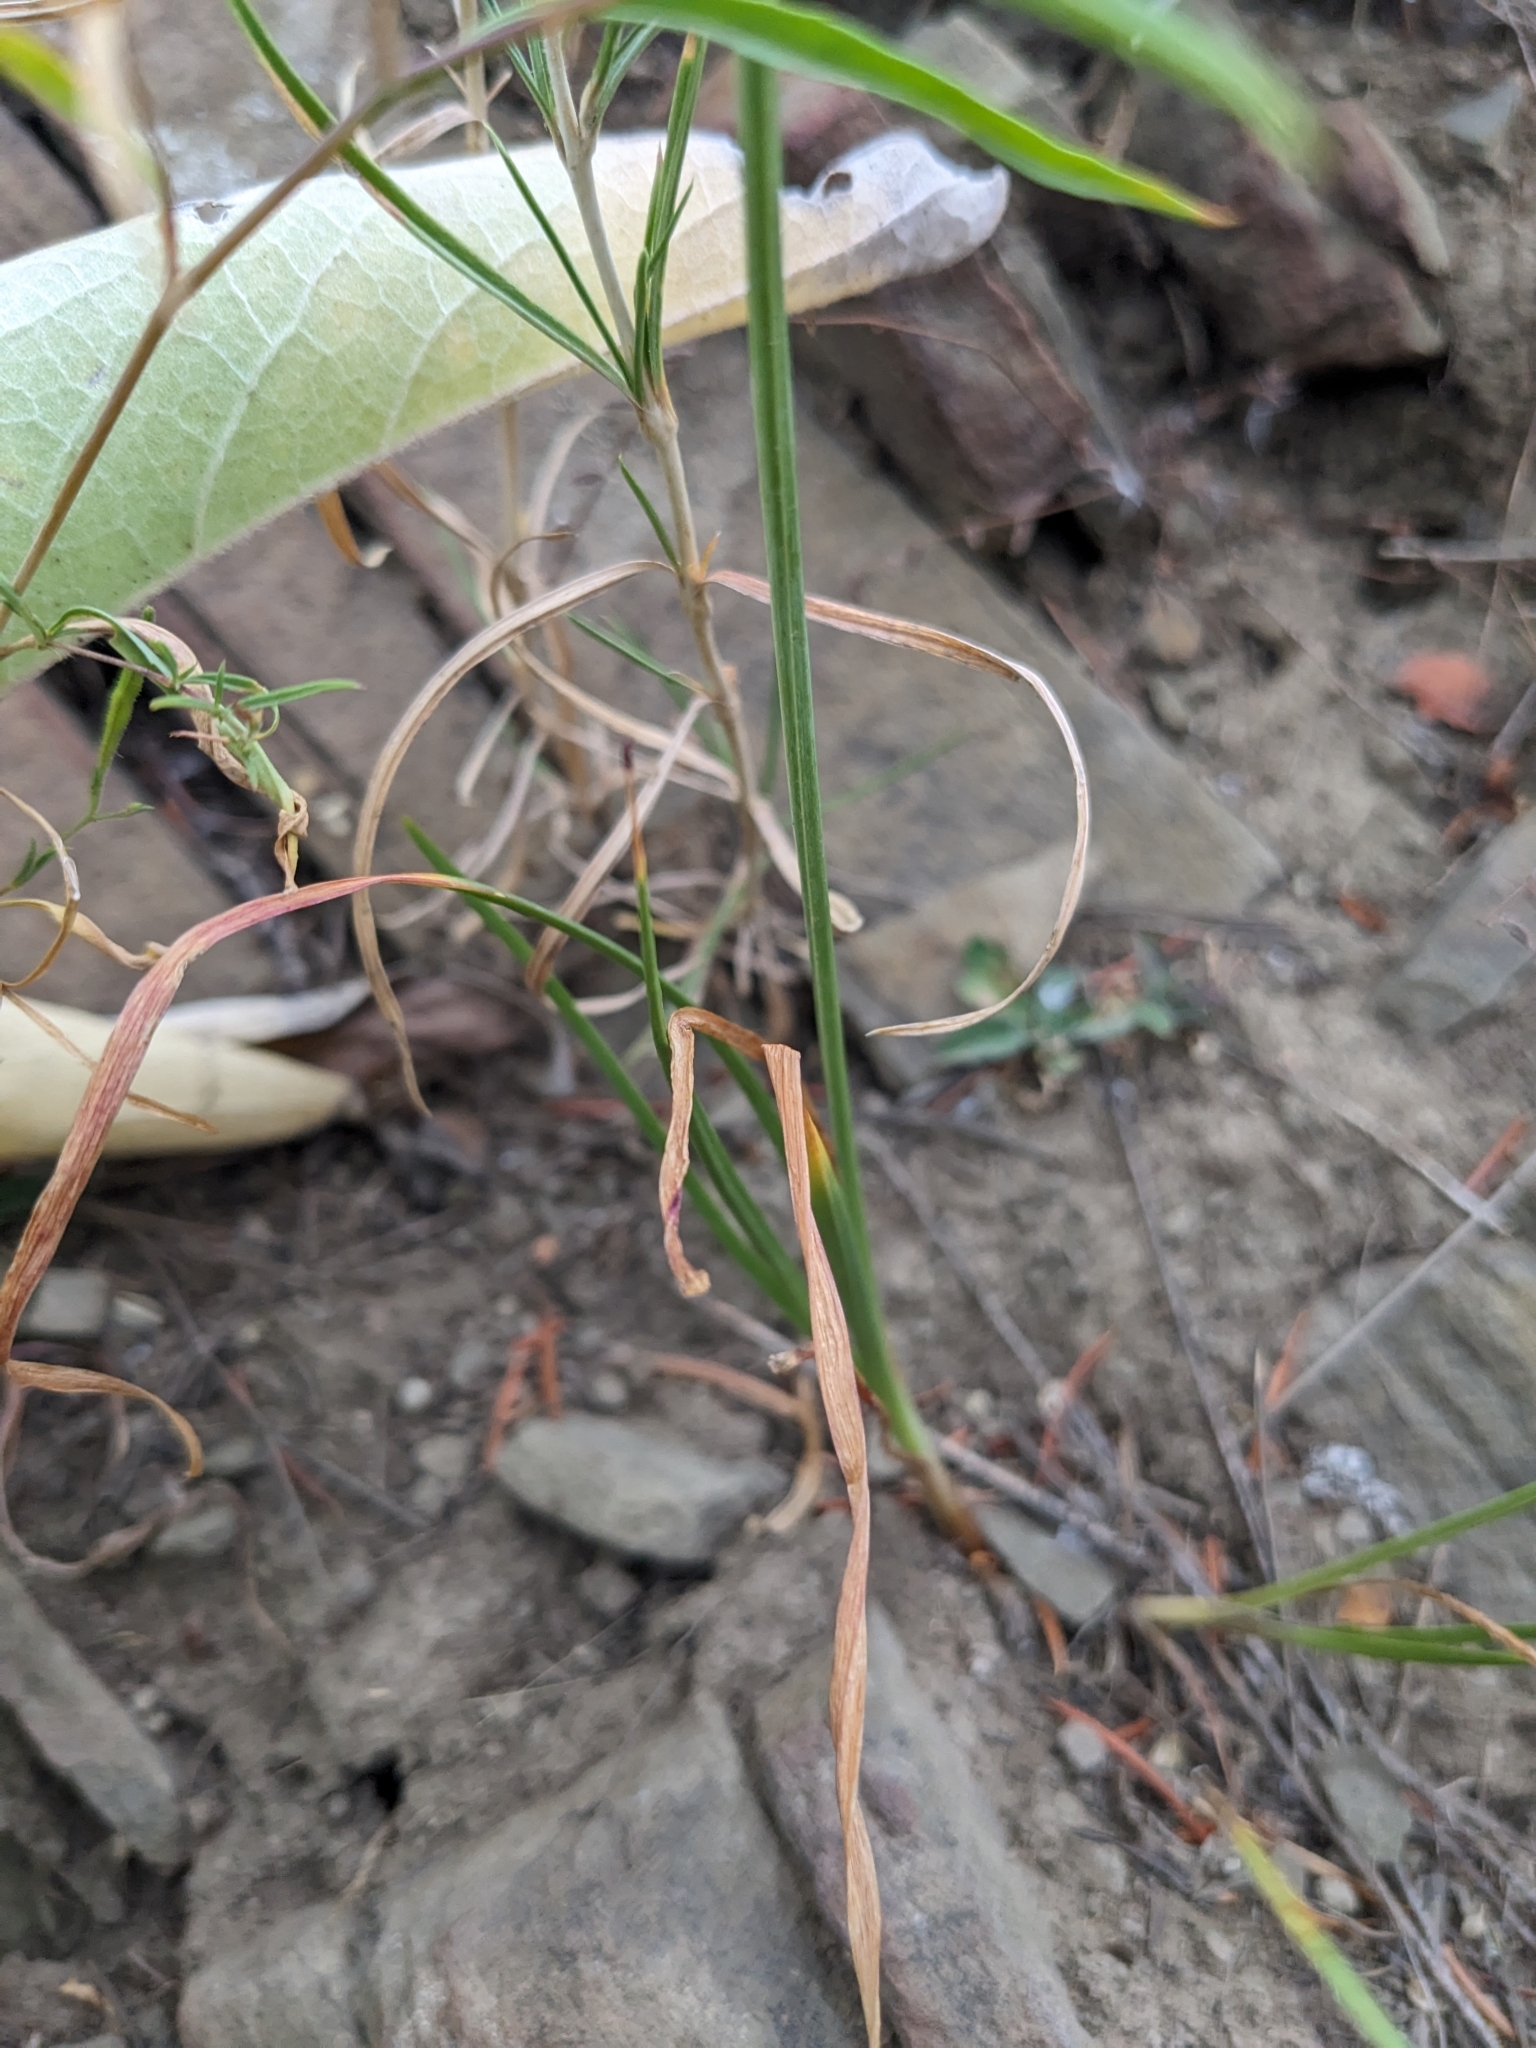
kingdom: Plantae
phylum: Tracheophyta
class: Liliopsida
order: Asparagales
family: Amaryllidaceae
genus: Allium
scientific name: Allium cernuum
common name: Nodding onion
